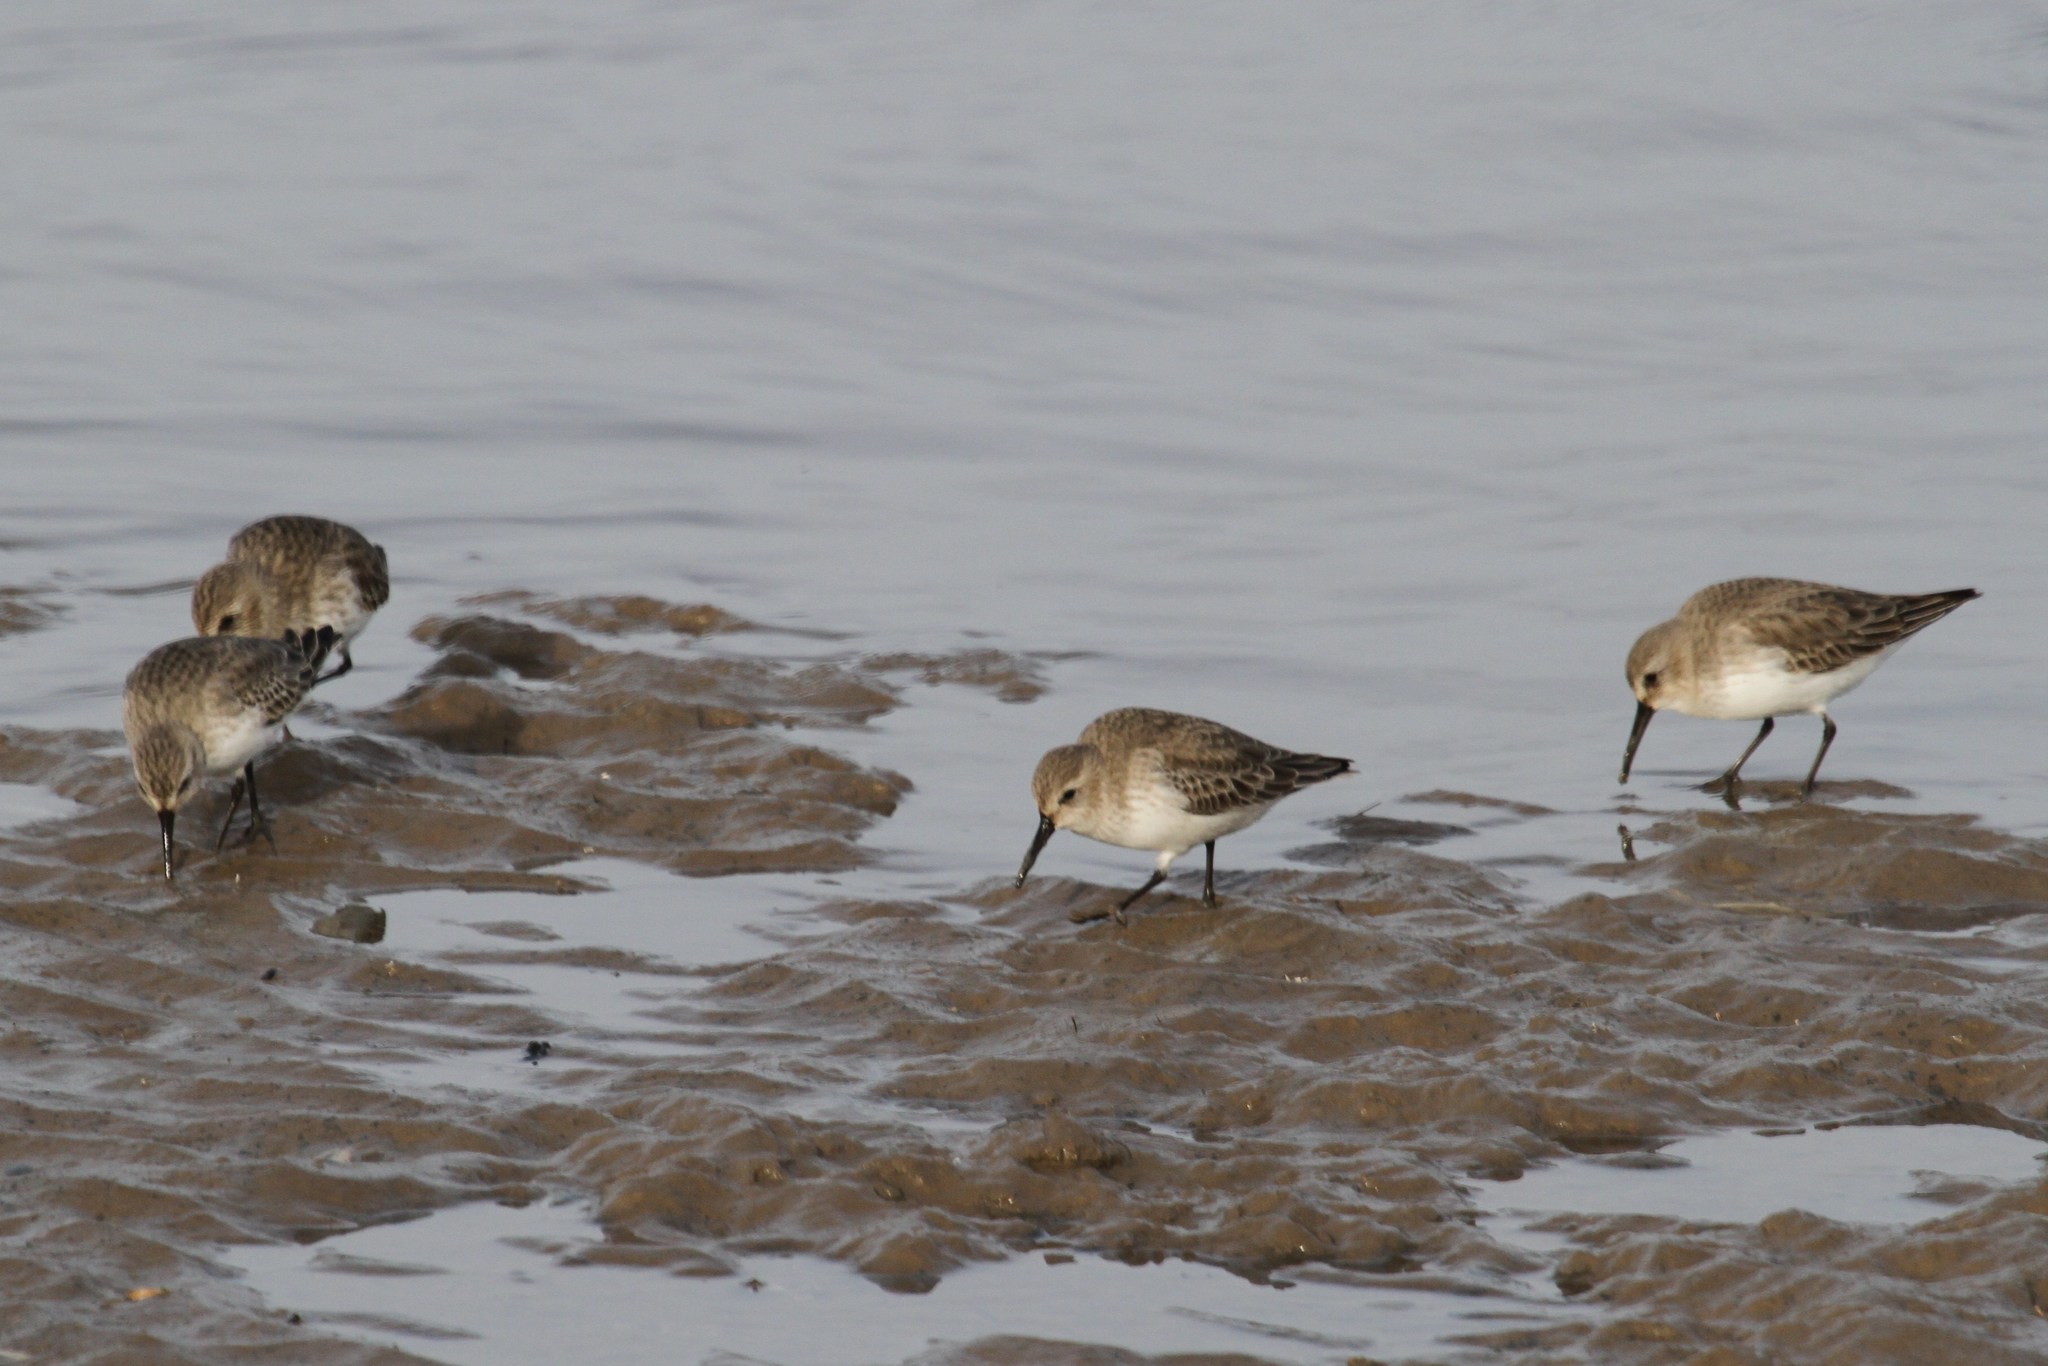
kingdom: Animalia
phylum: Chordata
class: Aves
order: Charadriiformes
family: Scolopacidae
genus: Calidris
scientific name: Calidris alpina
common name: Dunlin
